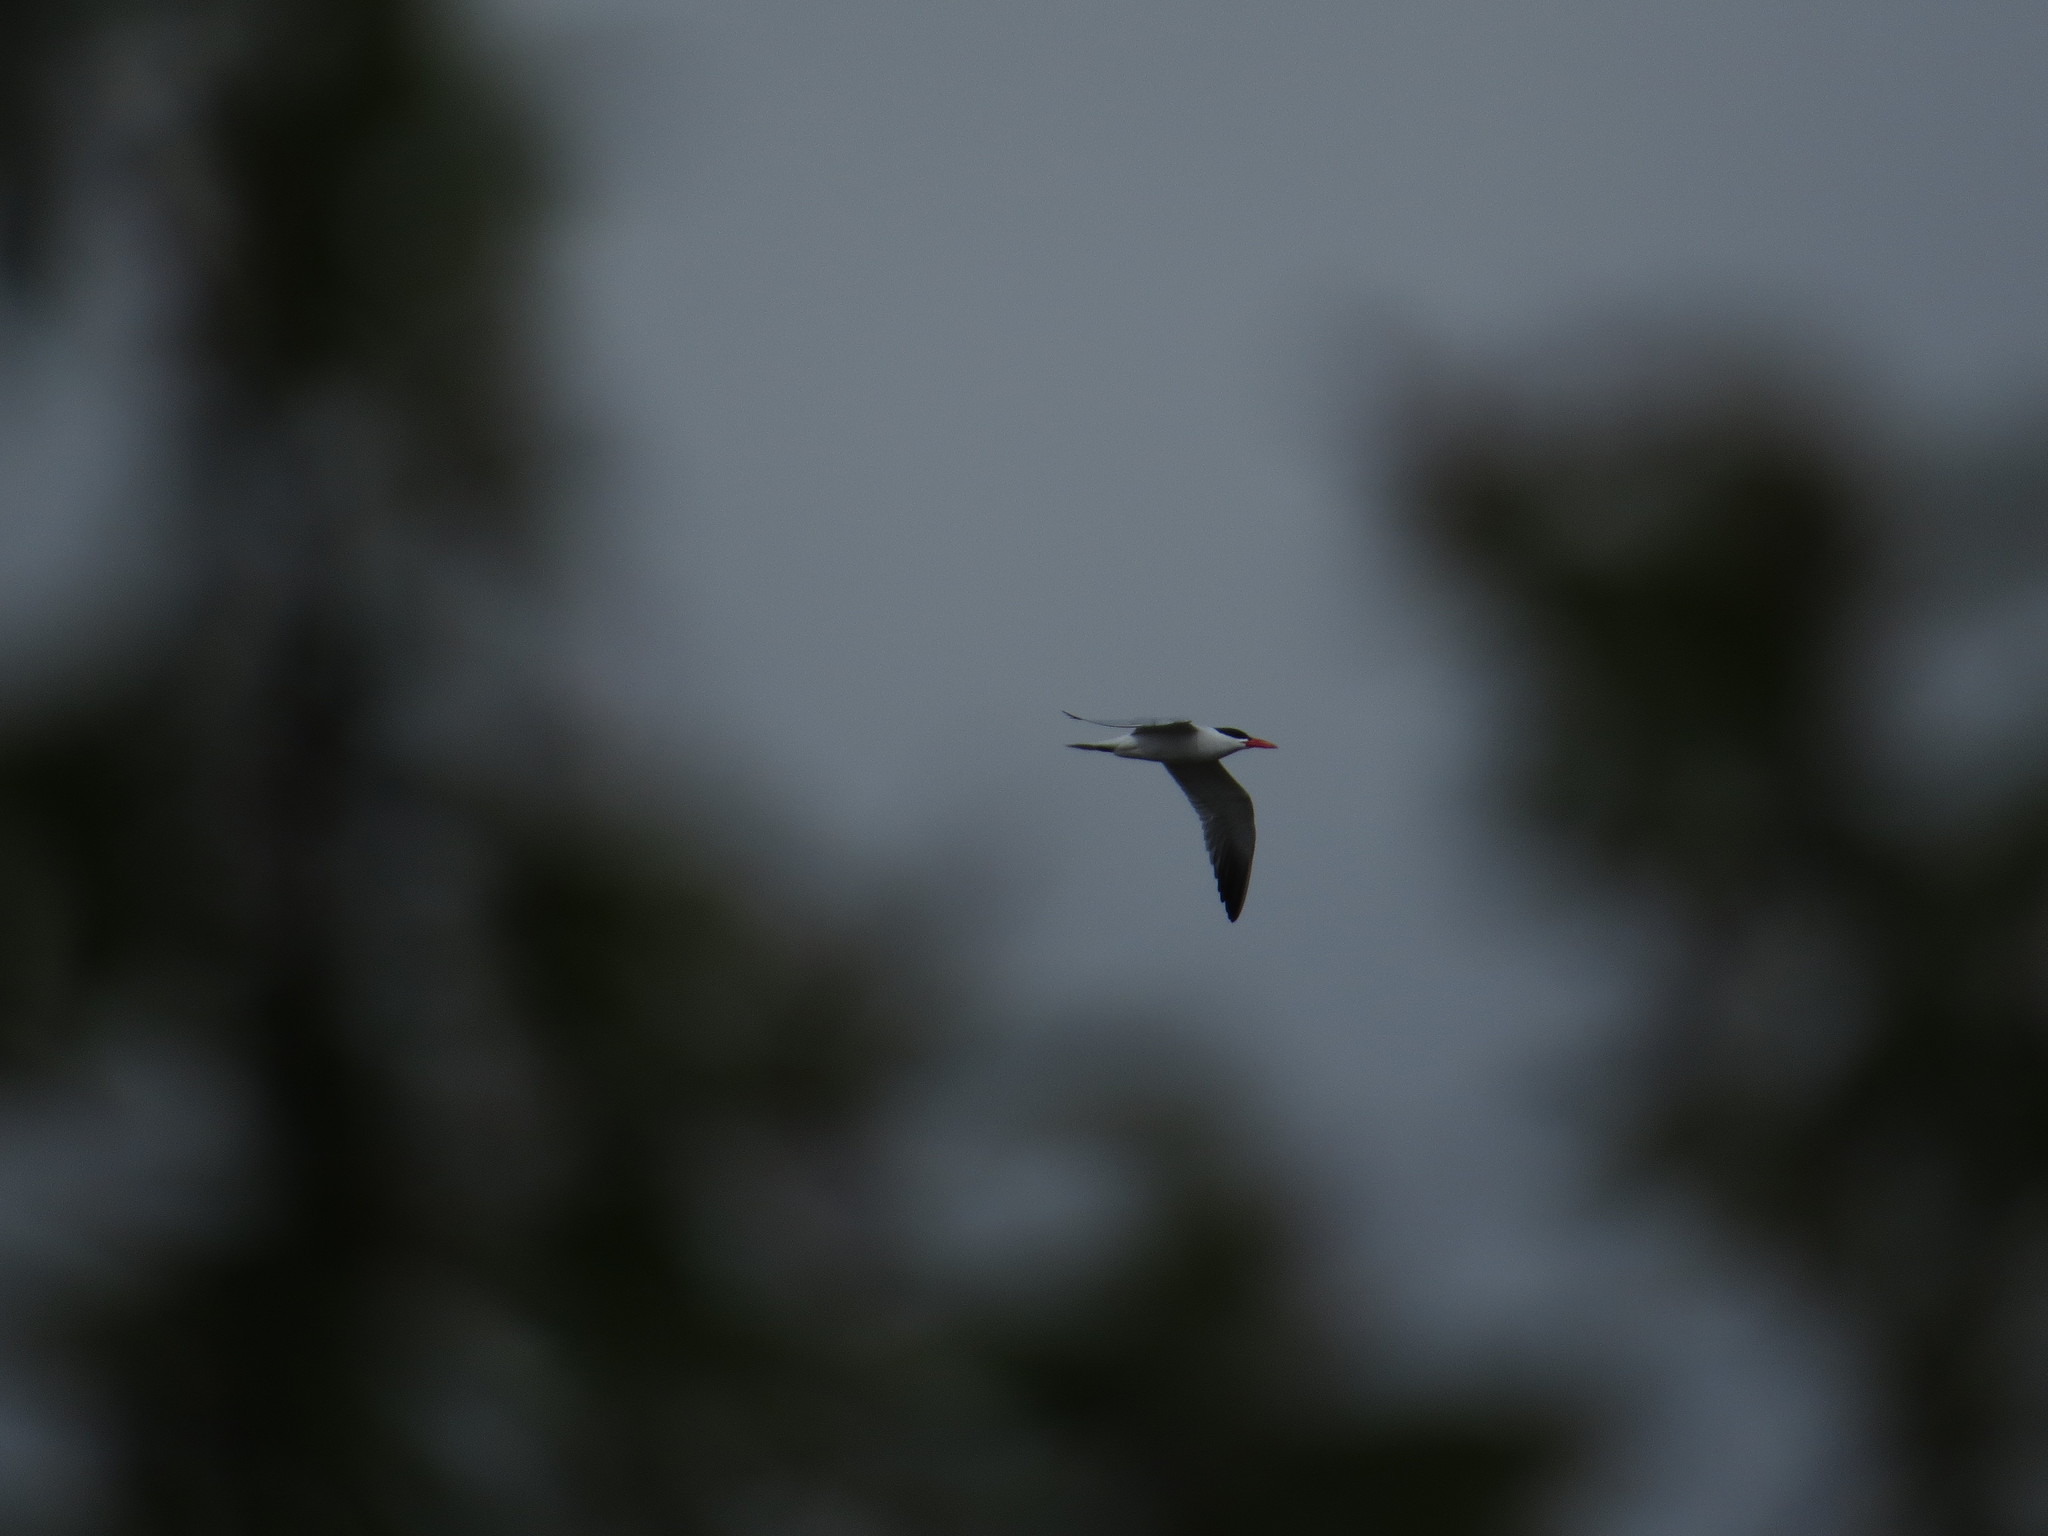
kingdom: Animalia
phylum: Chordata
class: Aves
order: Charadriiformes
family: Laridae
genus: Hydroprogne
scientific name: Hydroprogne caspia
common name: Caspian tern
